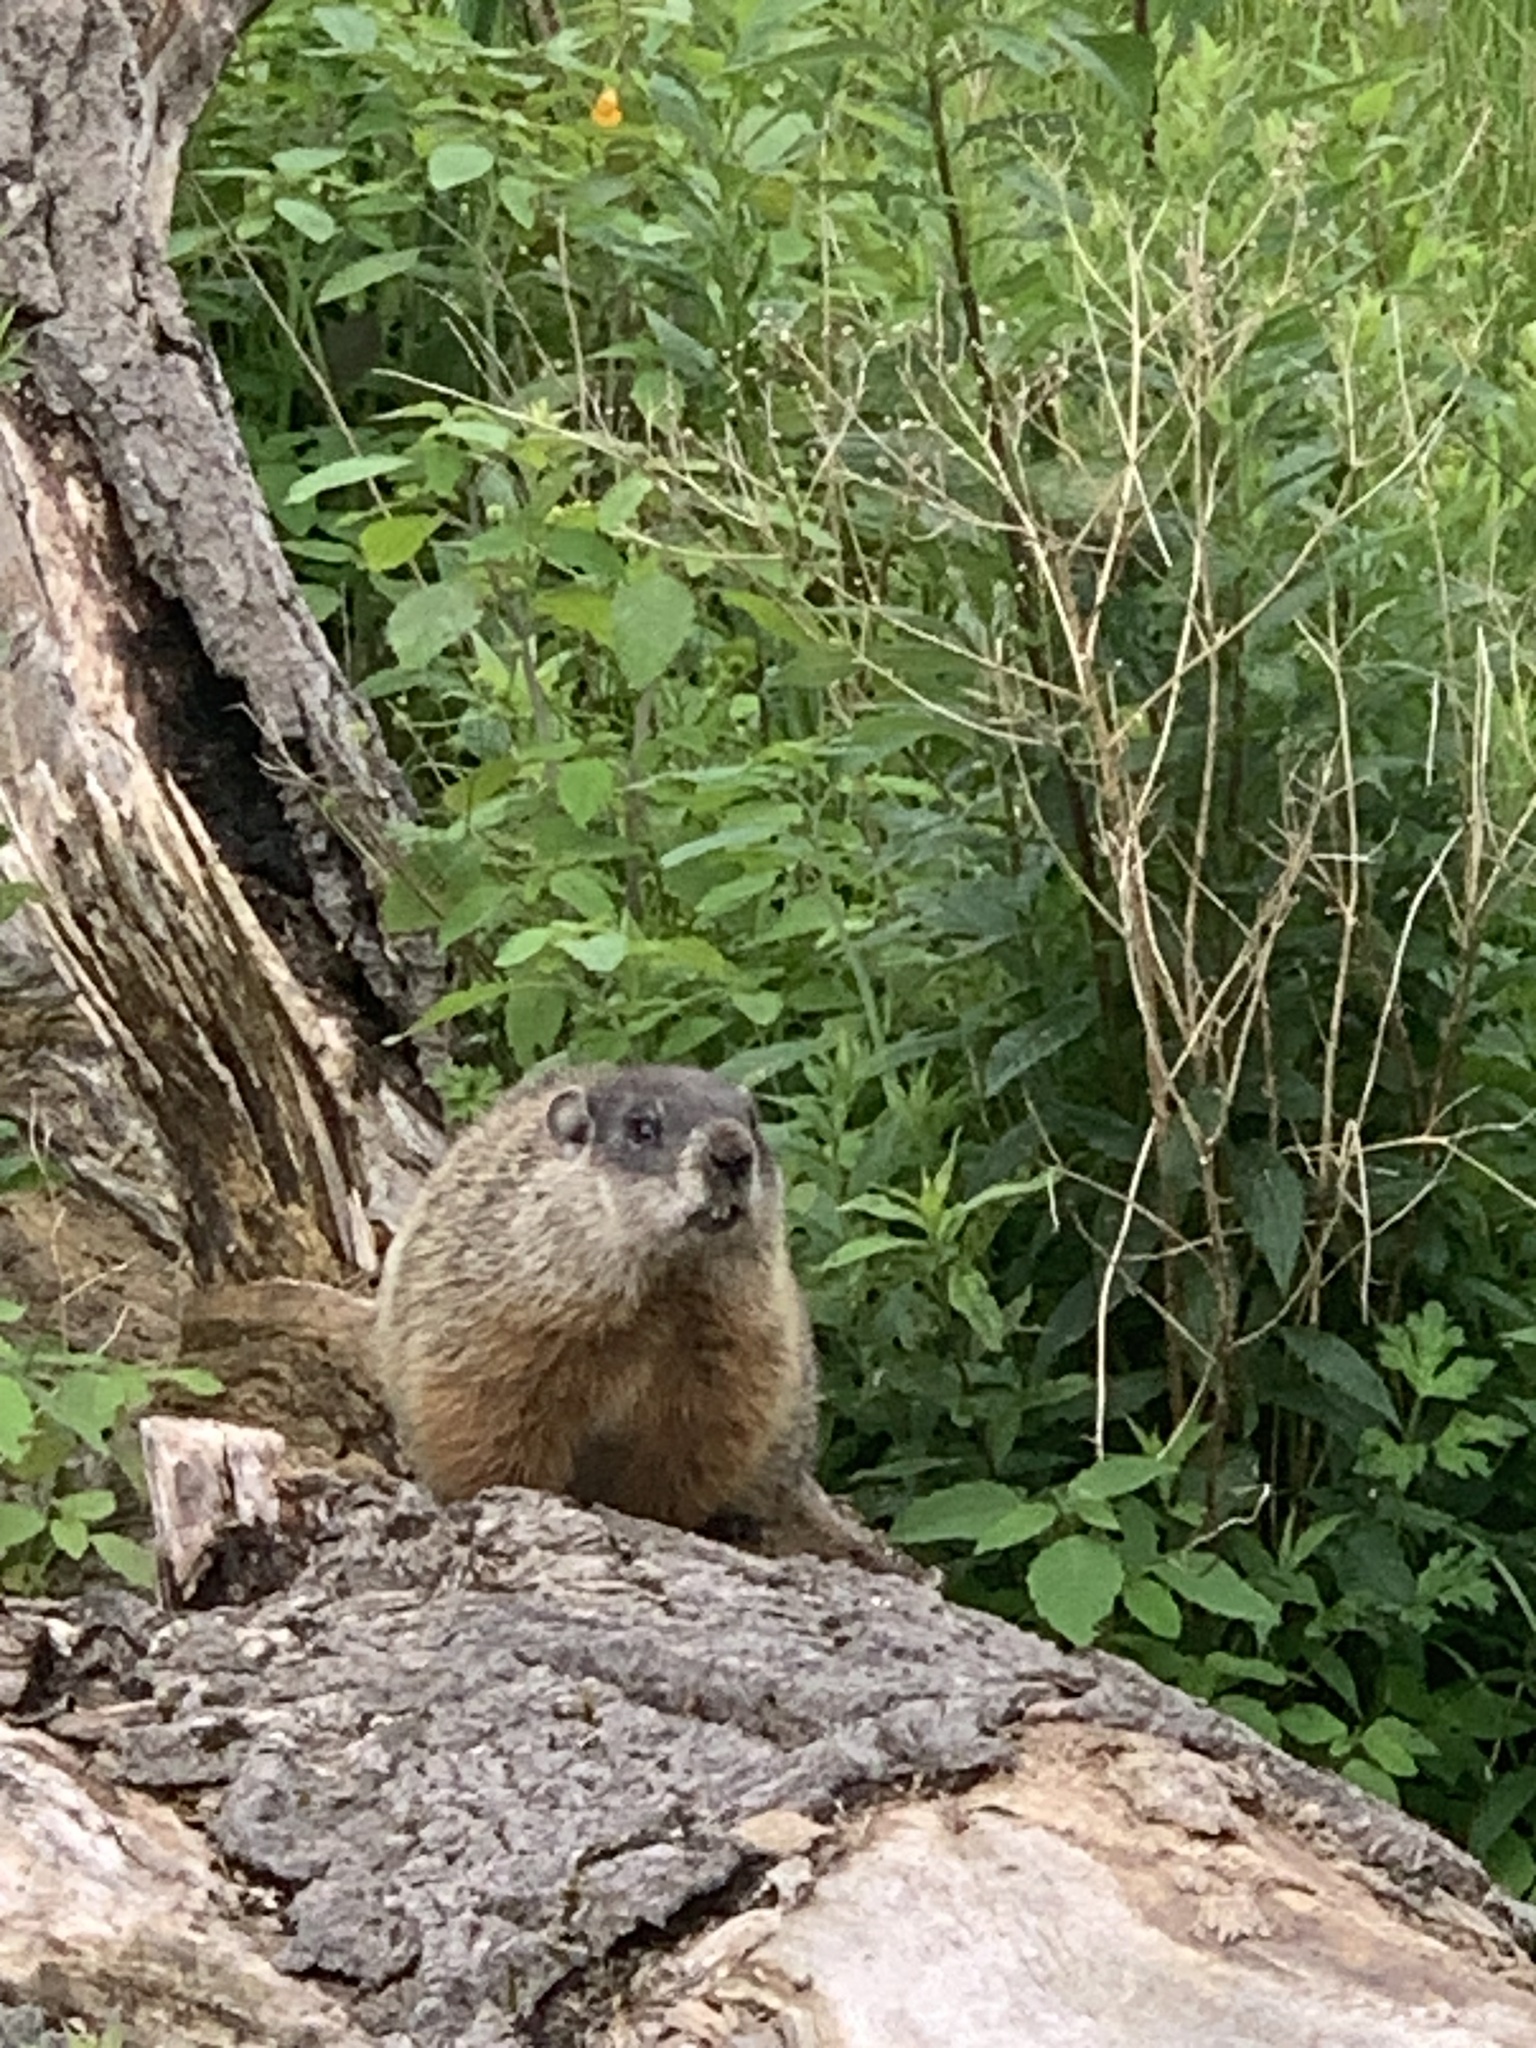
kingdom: Animalia
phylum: Chordata
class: Mammalia
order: Rodentia
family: Sciuridae
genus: Marmota
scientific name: Marmota monax
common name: Groundhog
